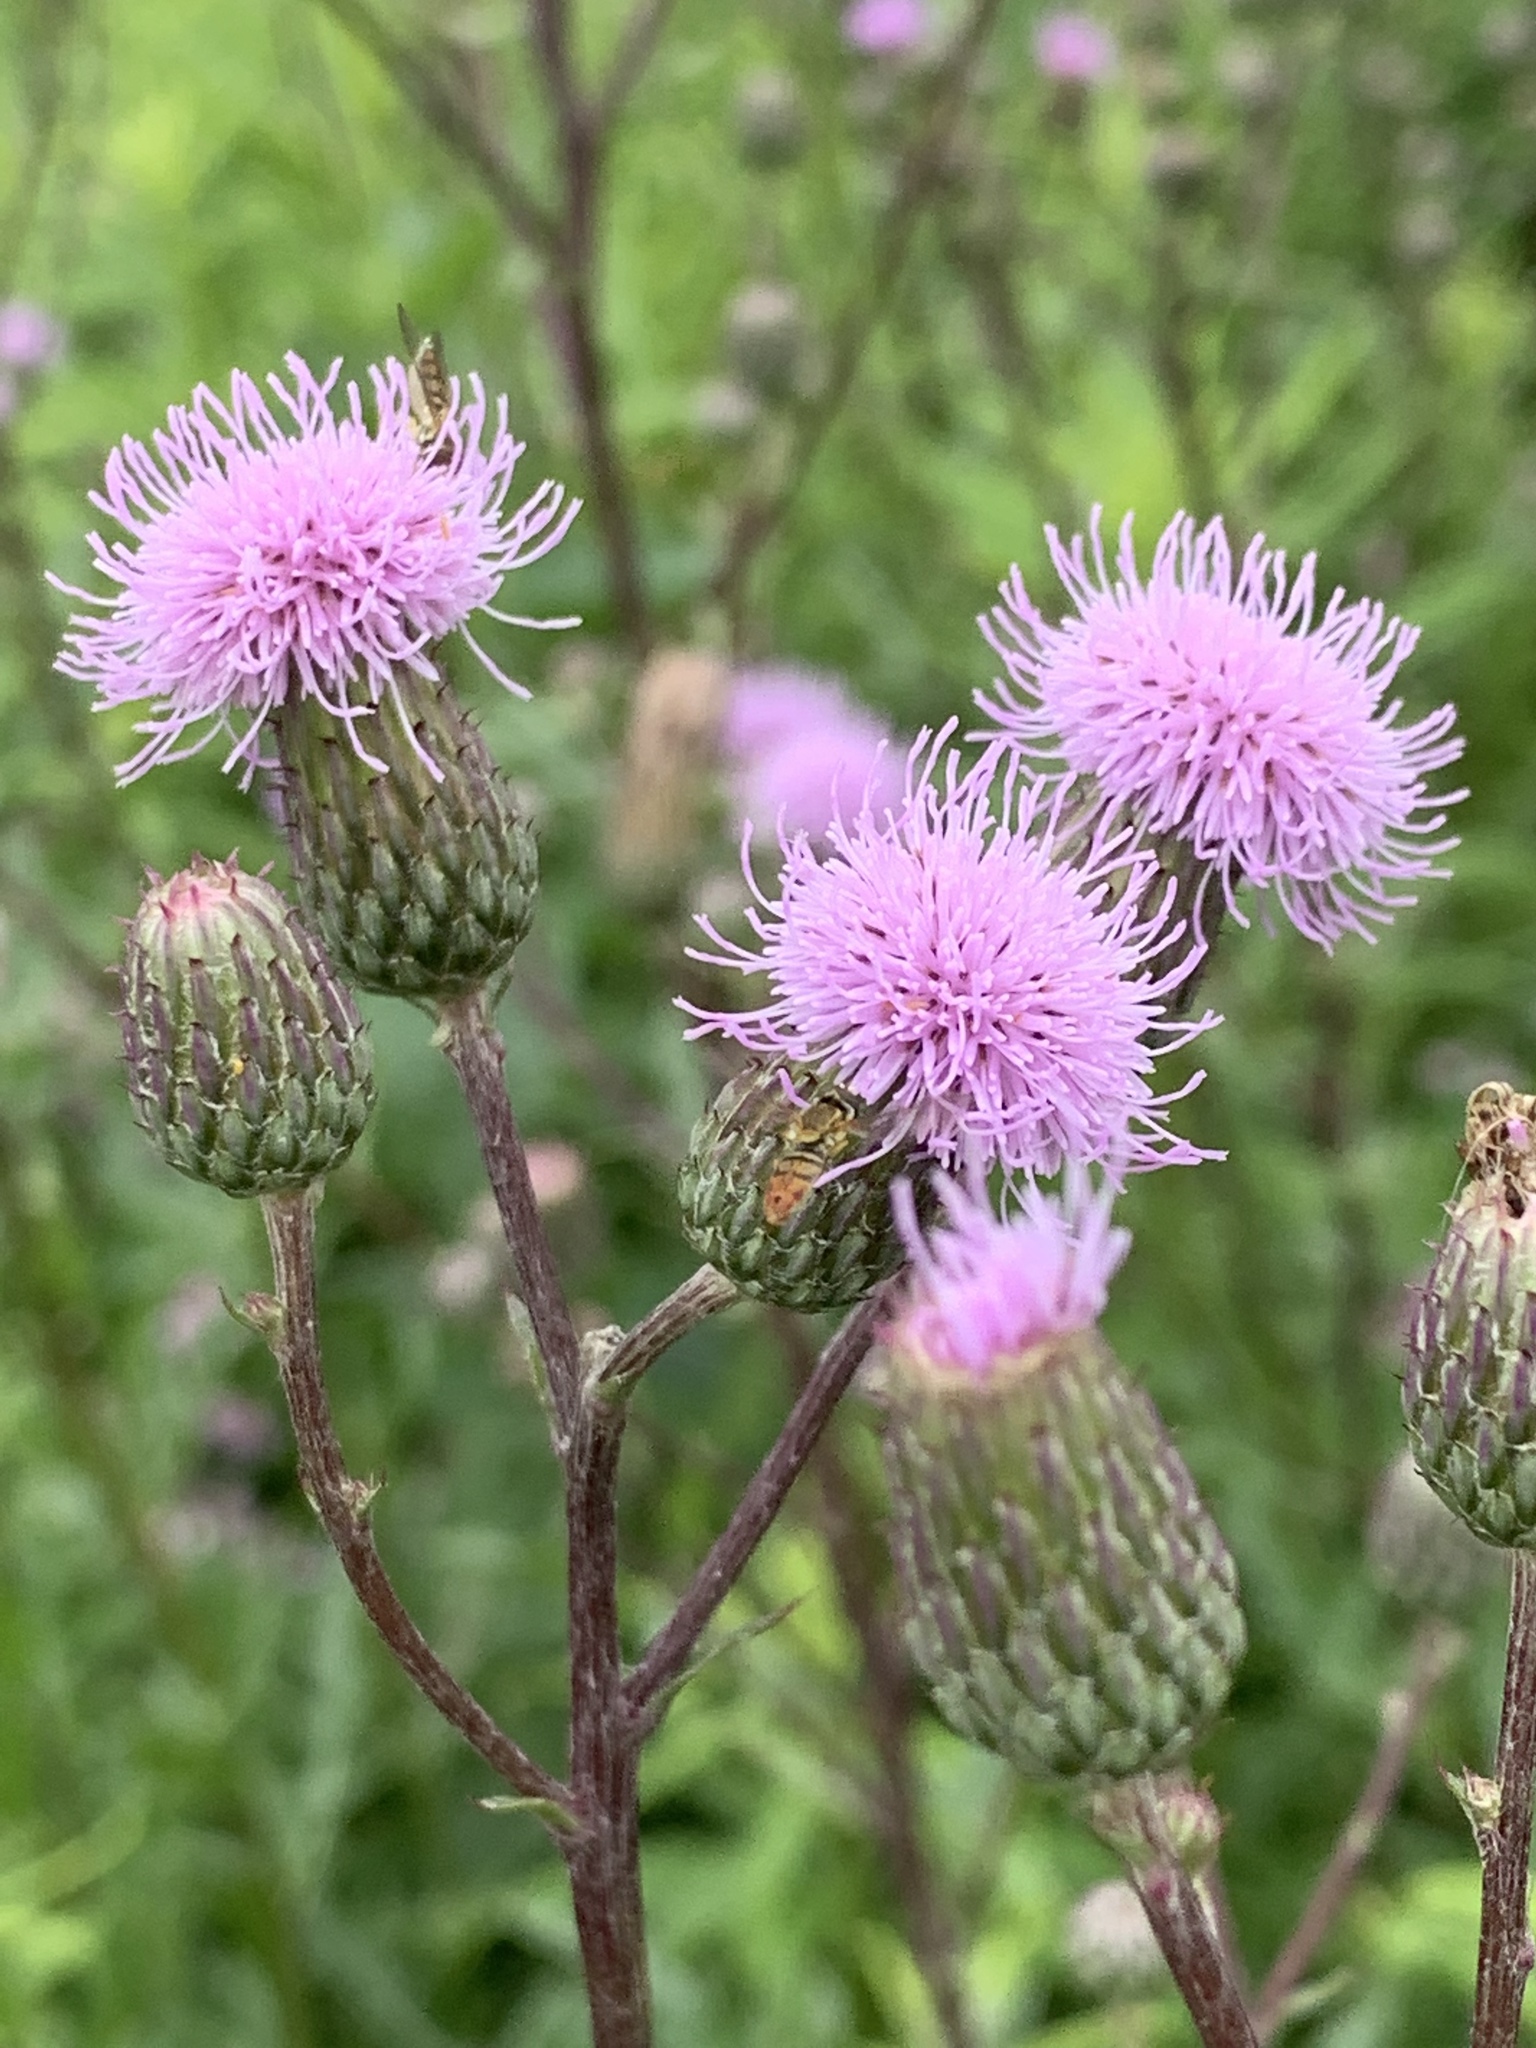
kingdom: Plantae
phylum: Tracheophyta
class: Magnoliopsida
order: Asterales
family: Asteraceae
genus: Cirsium
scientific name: Cirsium arvense
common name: Creeping thistle
